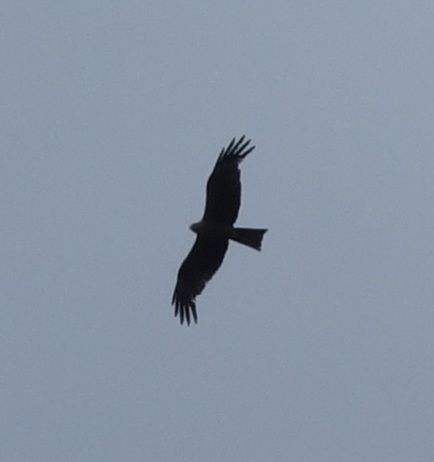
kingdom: Animalia
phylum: Chordata
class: Aves
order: Accipitriformes
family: Accipitridae
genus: Milvus
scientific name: Milvus migrans
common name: Black kite
